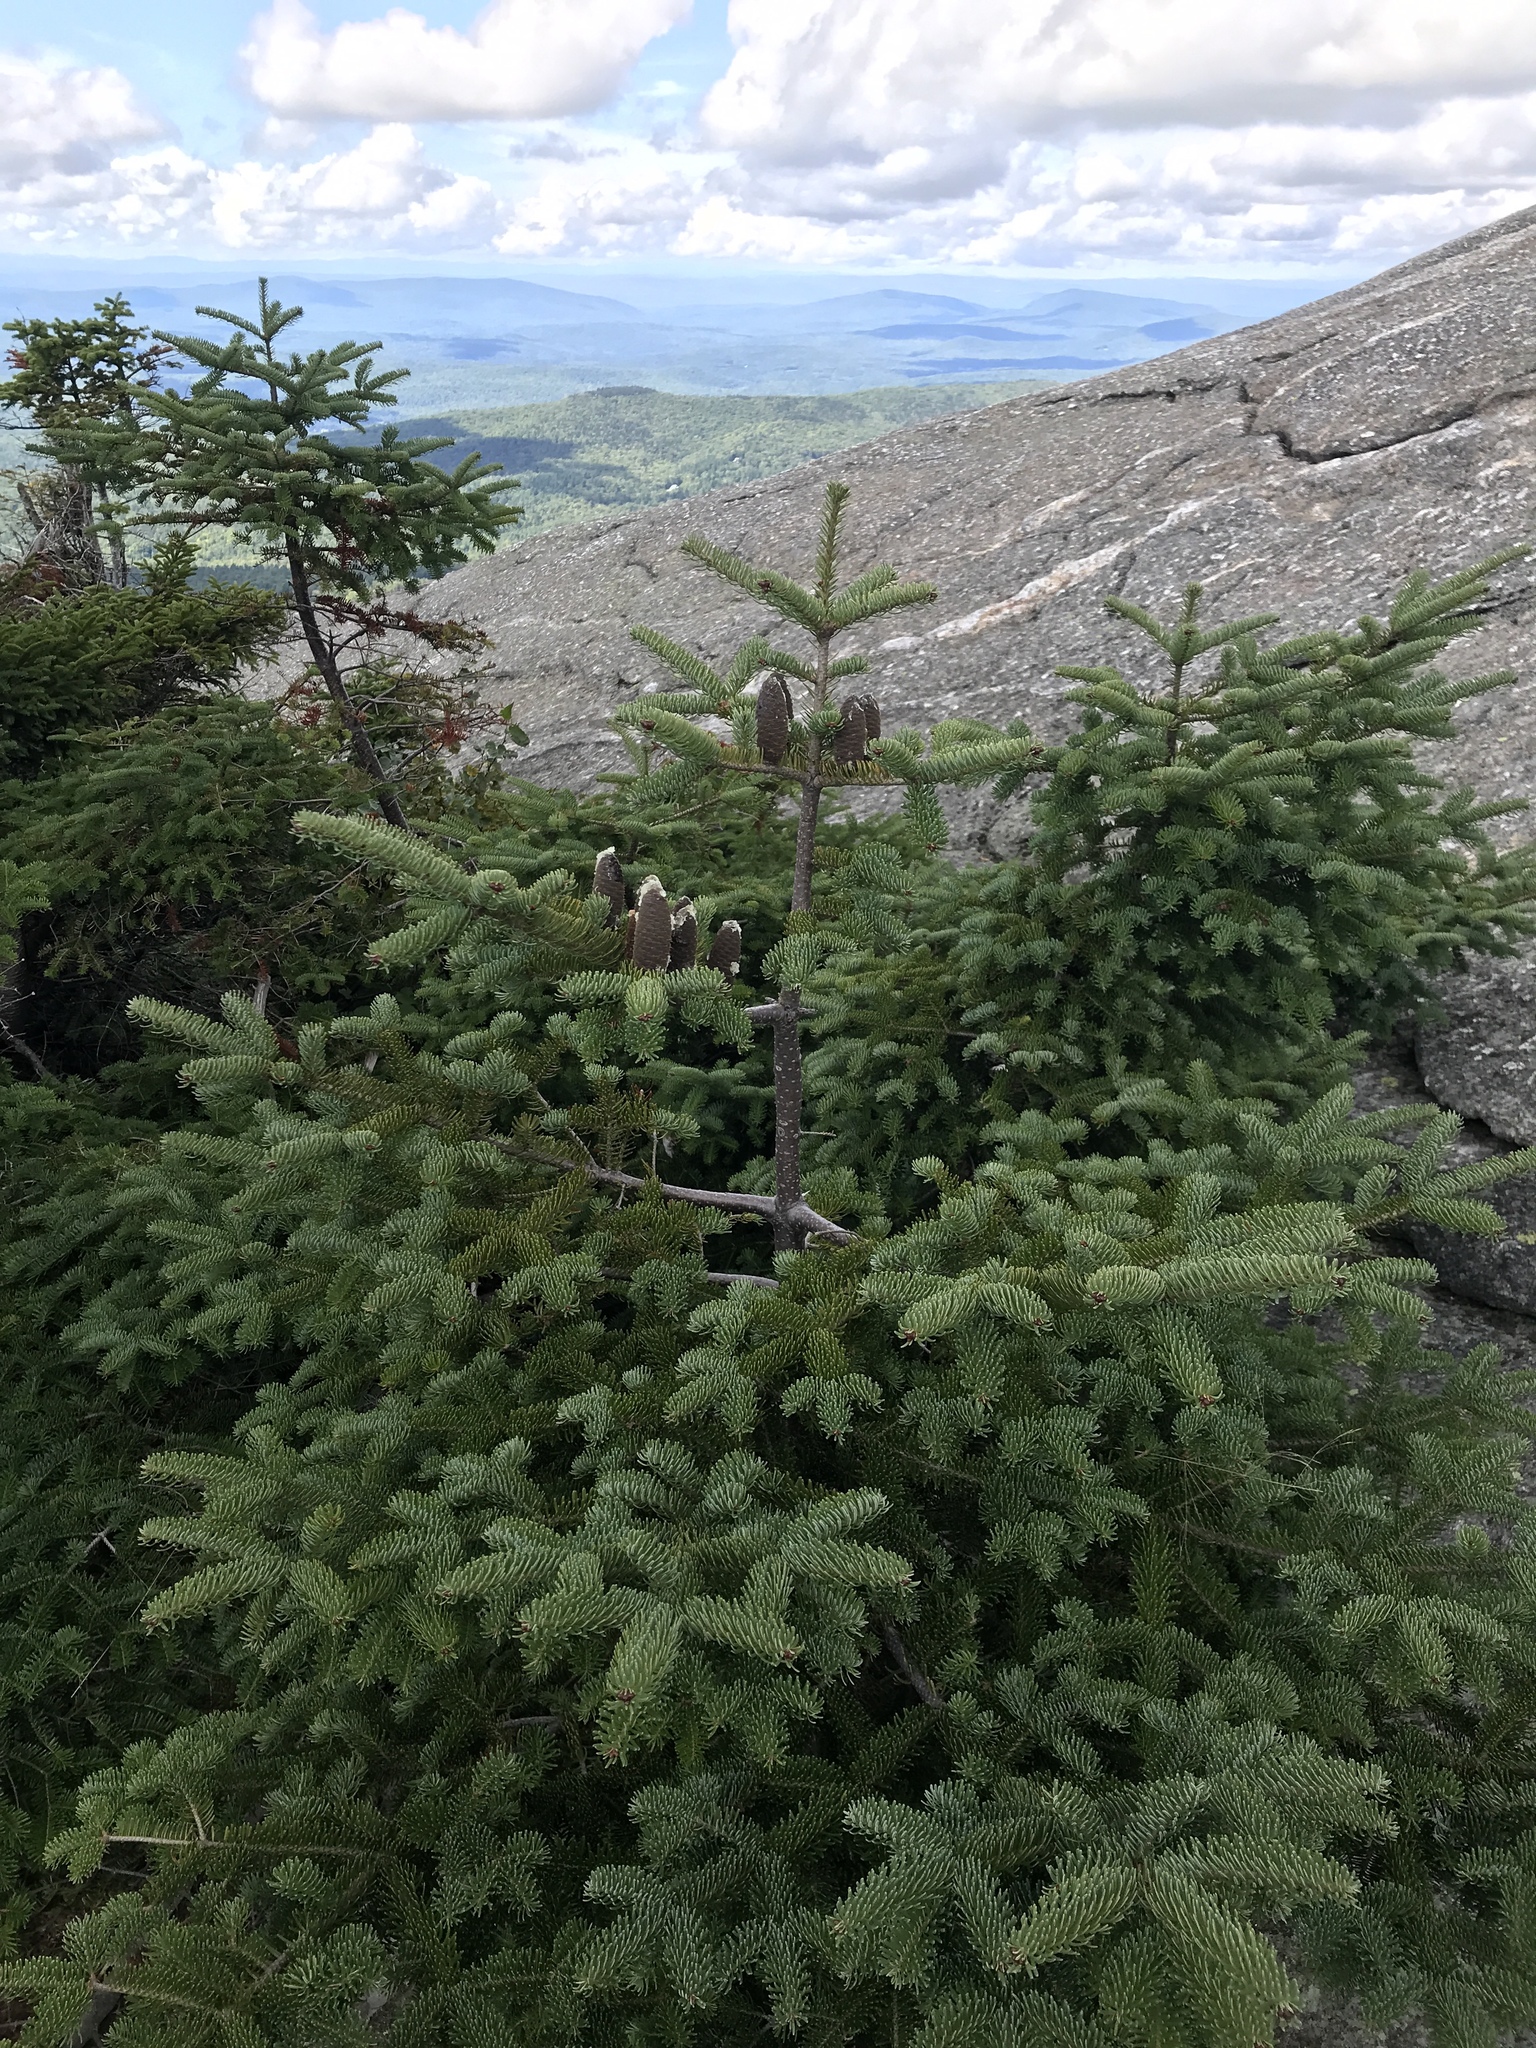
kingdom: Plantae
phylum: Tracheophyta
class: Pinopsida
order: Pinales
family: Pinaceae
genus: Abies
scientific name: Abies balsamea
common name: Balsam fir
